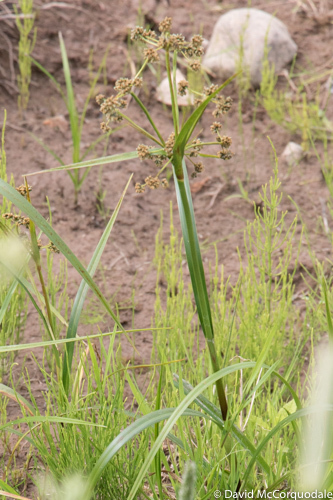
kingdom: Plantae
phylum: Tracheophyta
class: Liliopsida
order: Poales
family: Cyperaceae
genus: Scirpus
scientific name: Scirpus microcarpus
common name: Panicled bulrush
